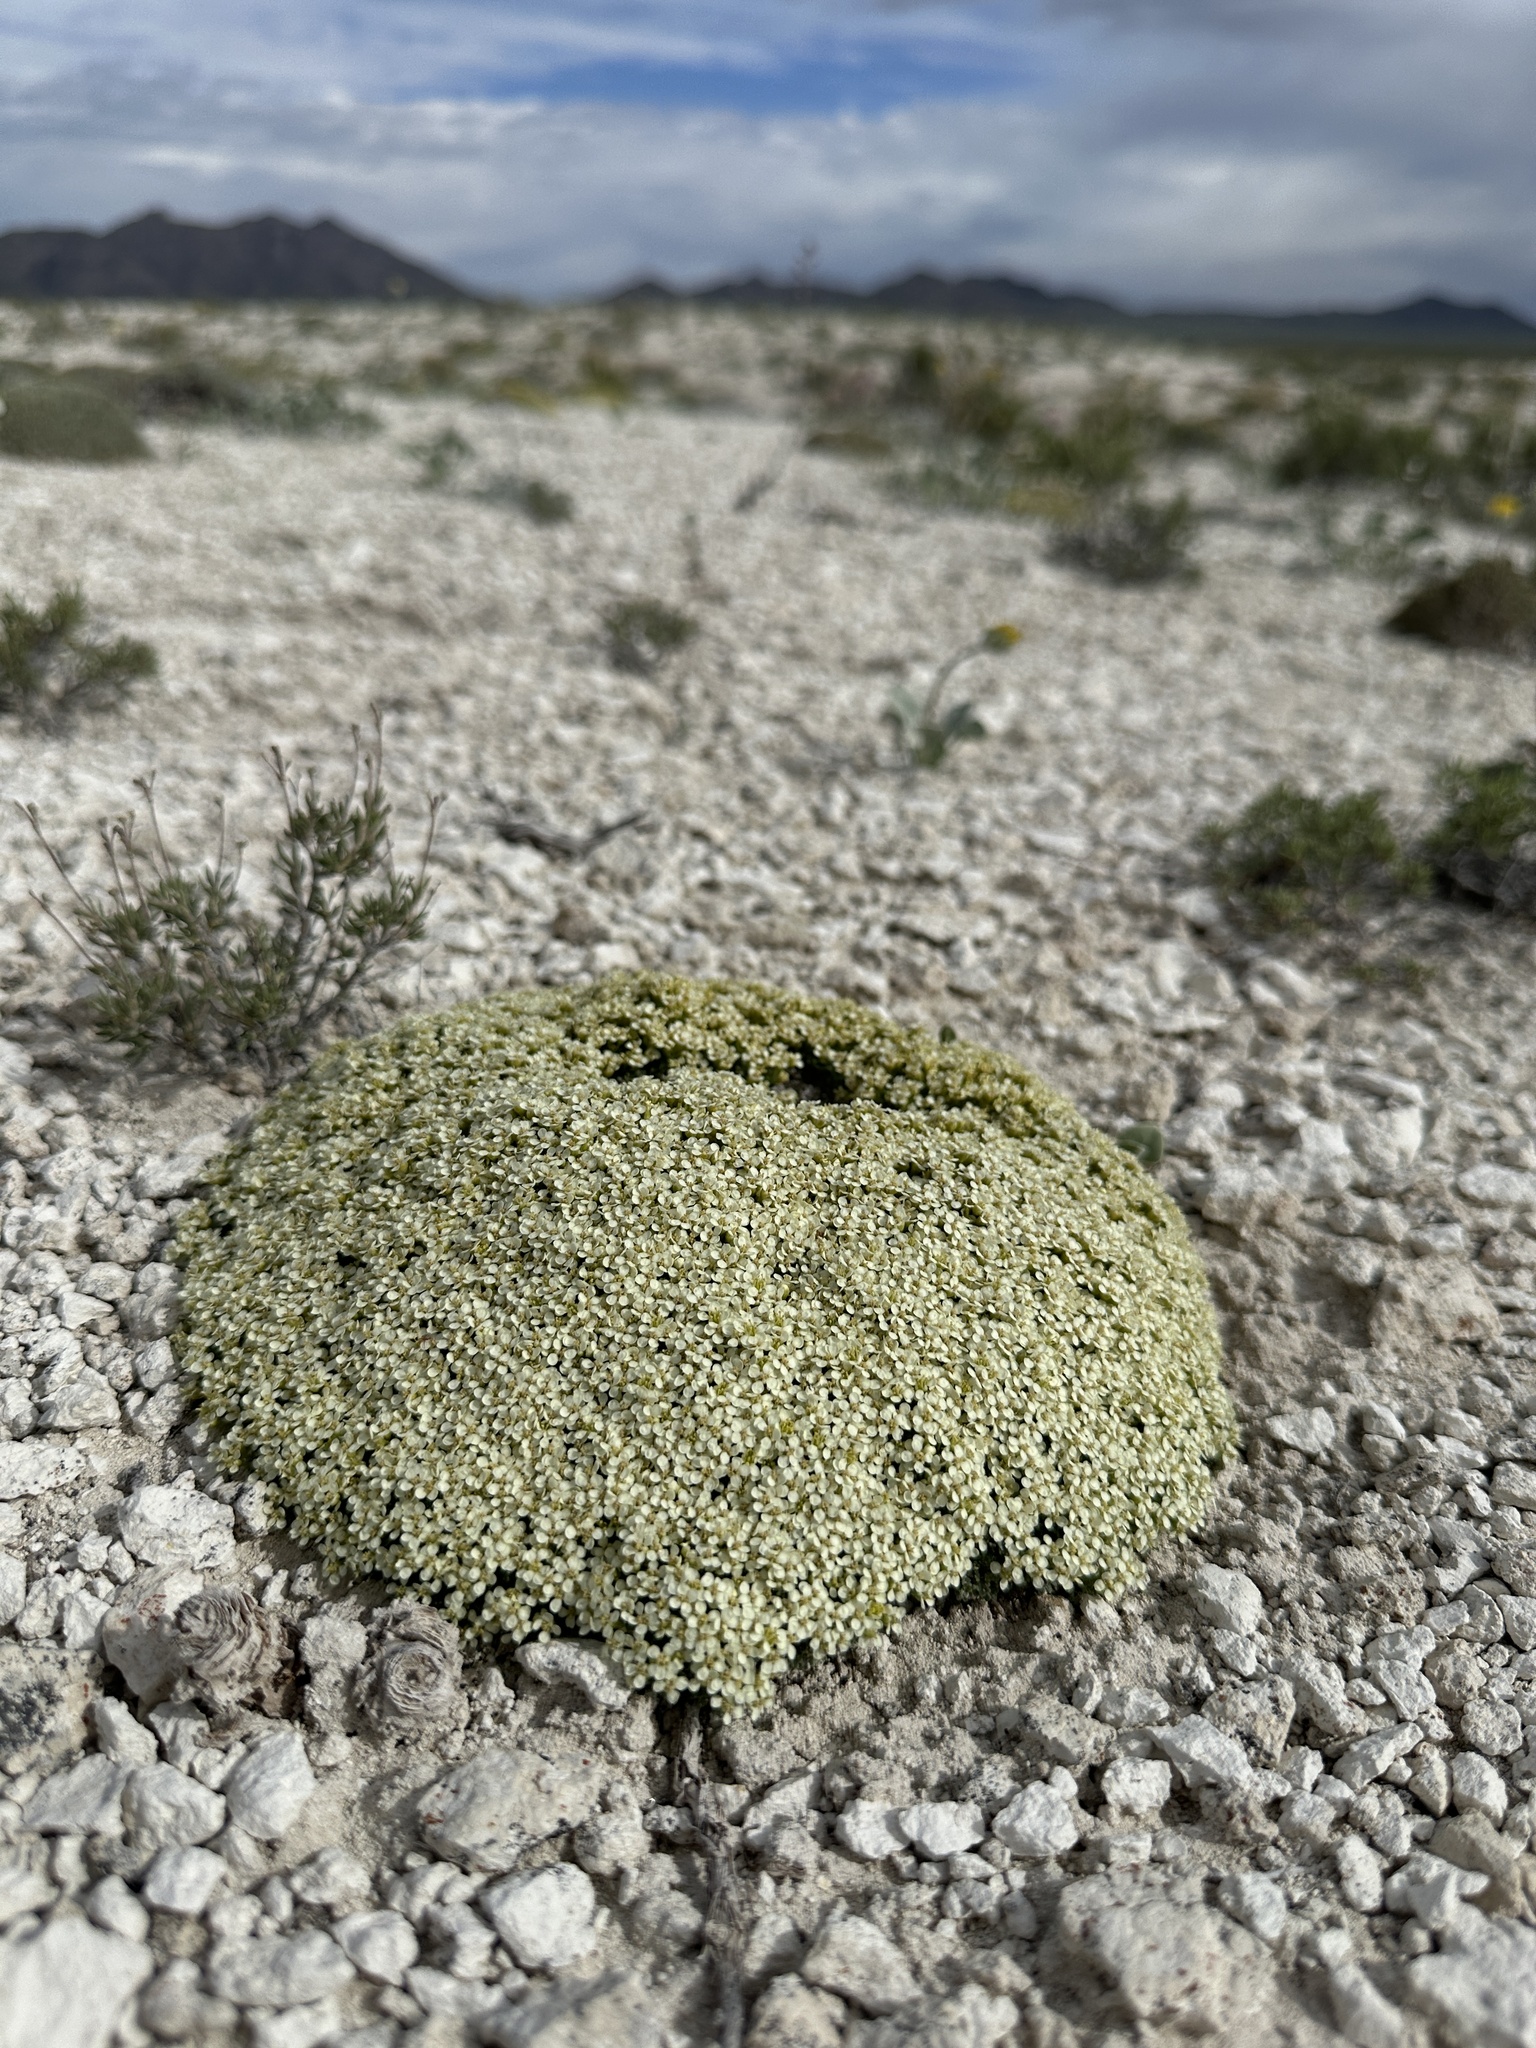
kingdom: Plantae
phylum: Tracheophyta
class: Magnoliopsida
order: Brassicales
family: Brassicaceae
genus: Lepidium
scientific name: Lepidium nanum
